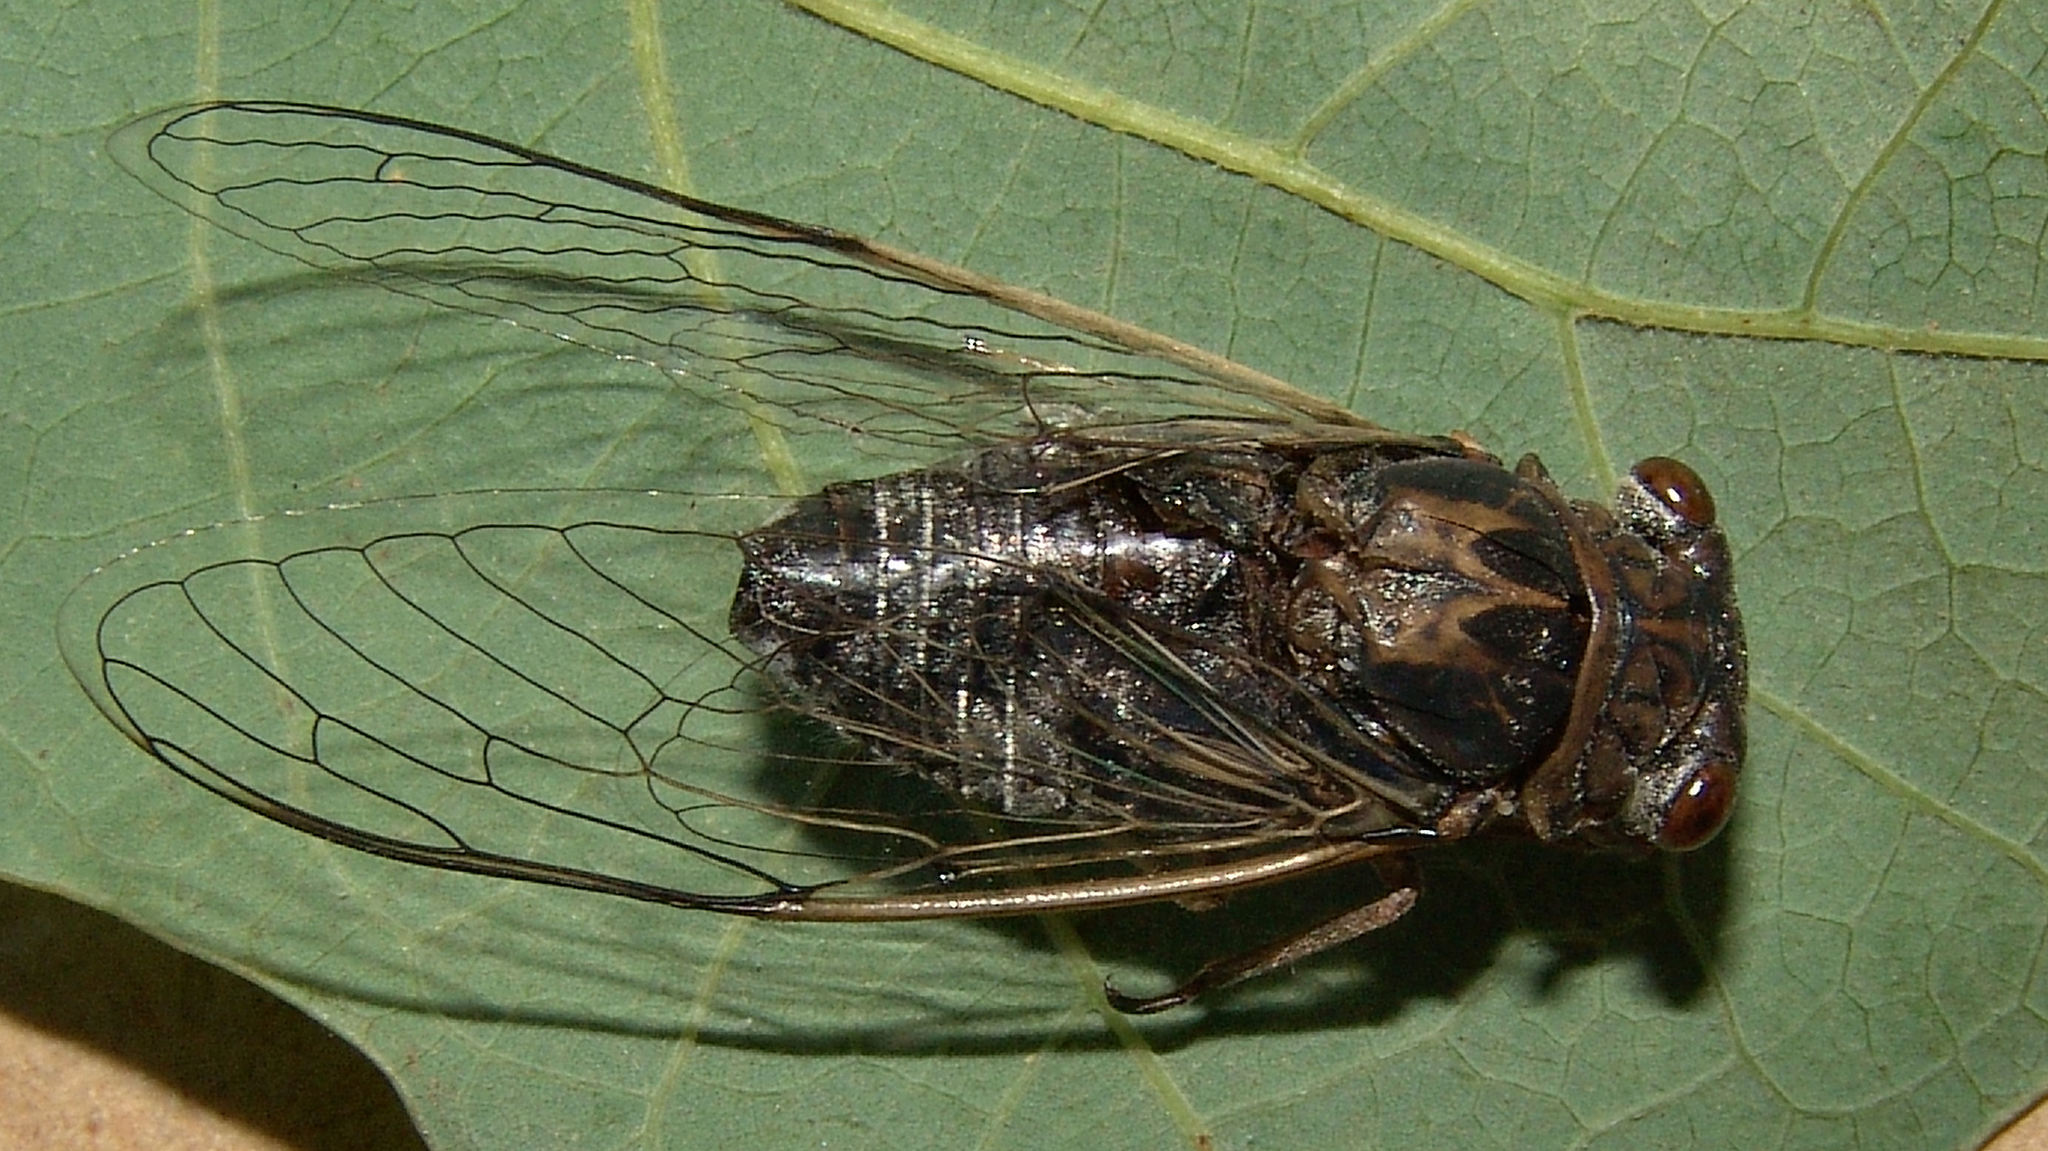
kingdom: Animalia
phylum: Arthropoda
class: Insecta
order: Hemiptera
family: Cicadidae
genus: Diceroprocta
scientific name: Diceroprocta vitripennis
